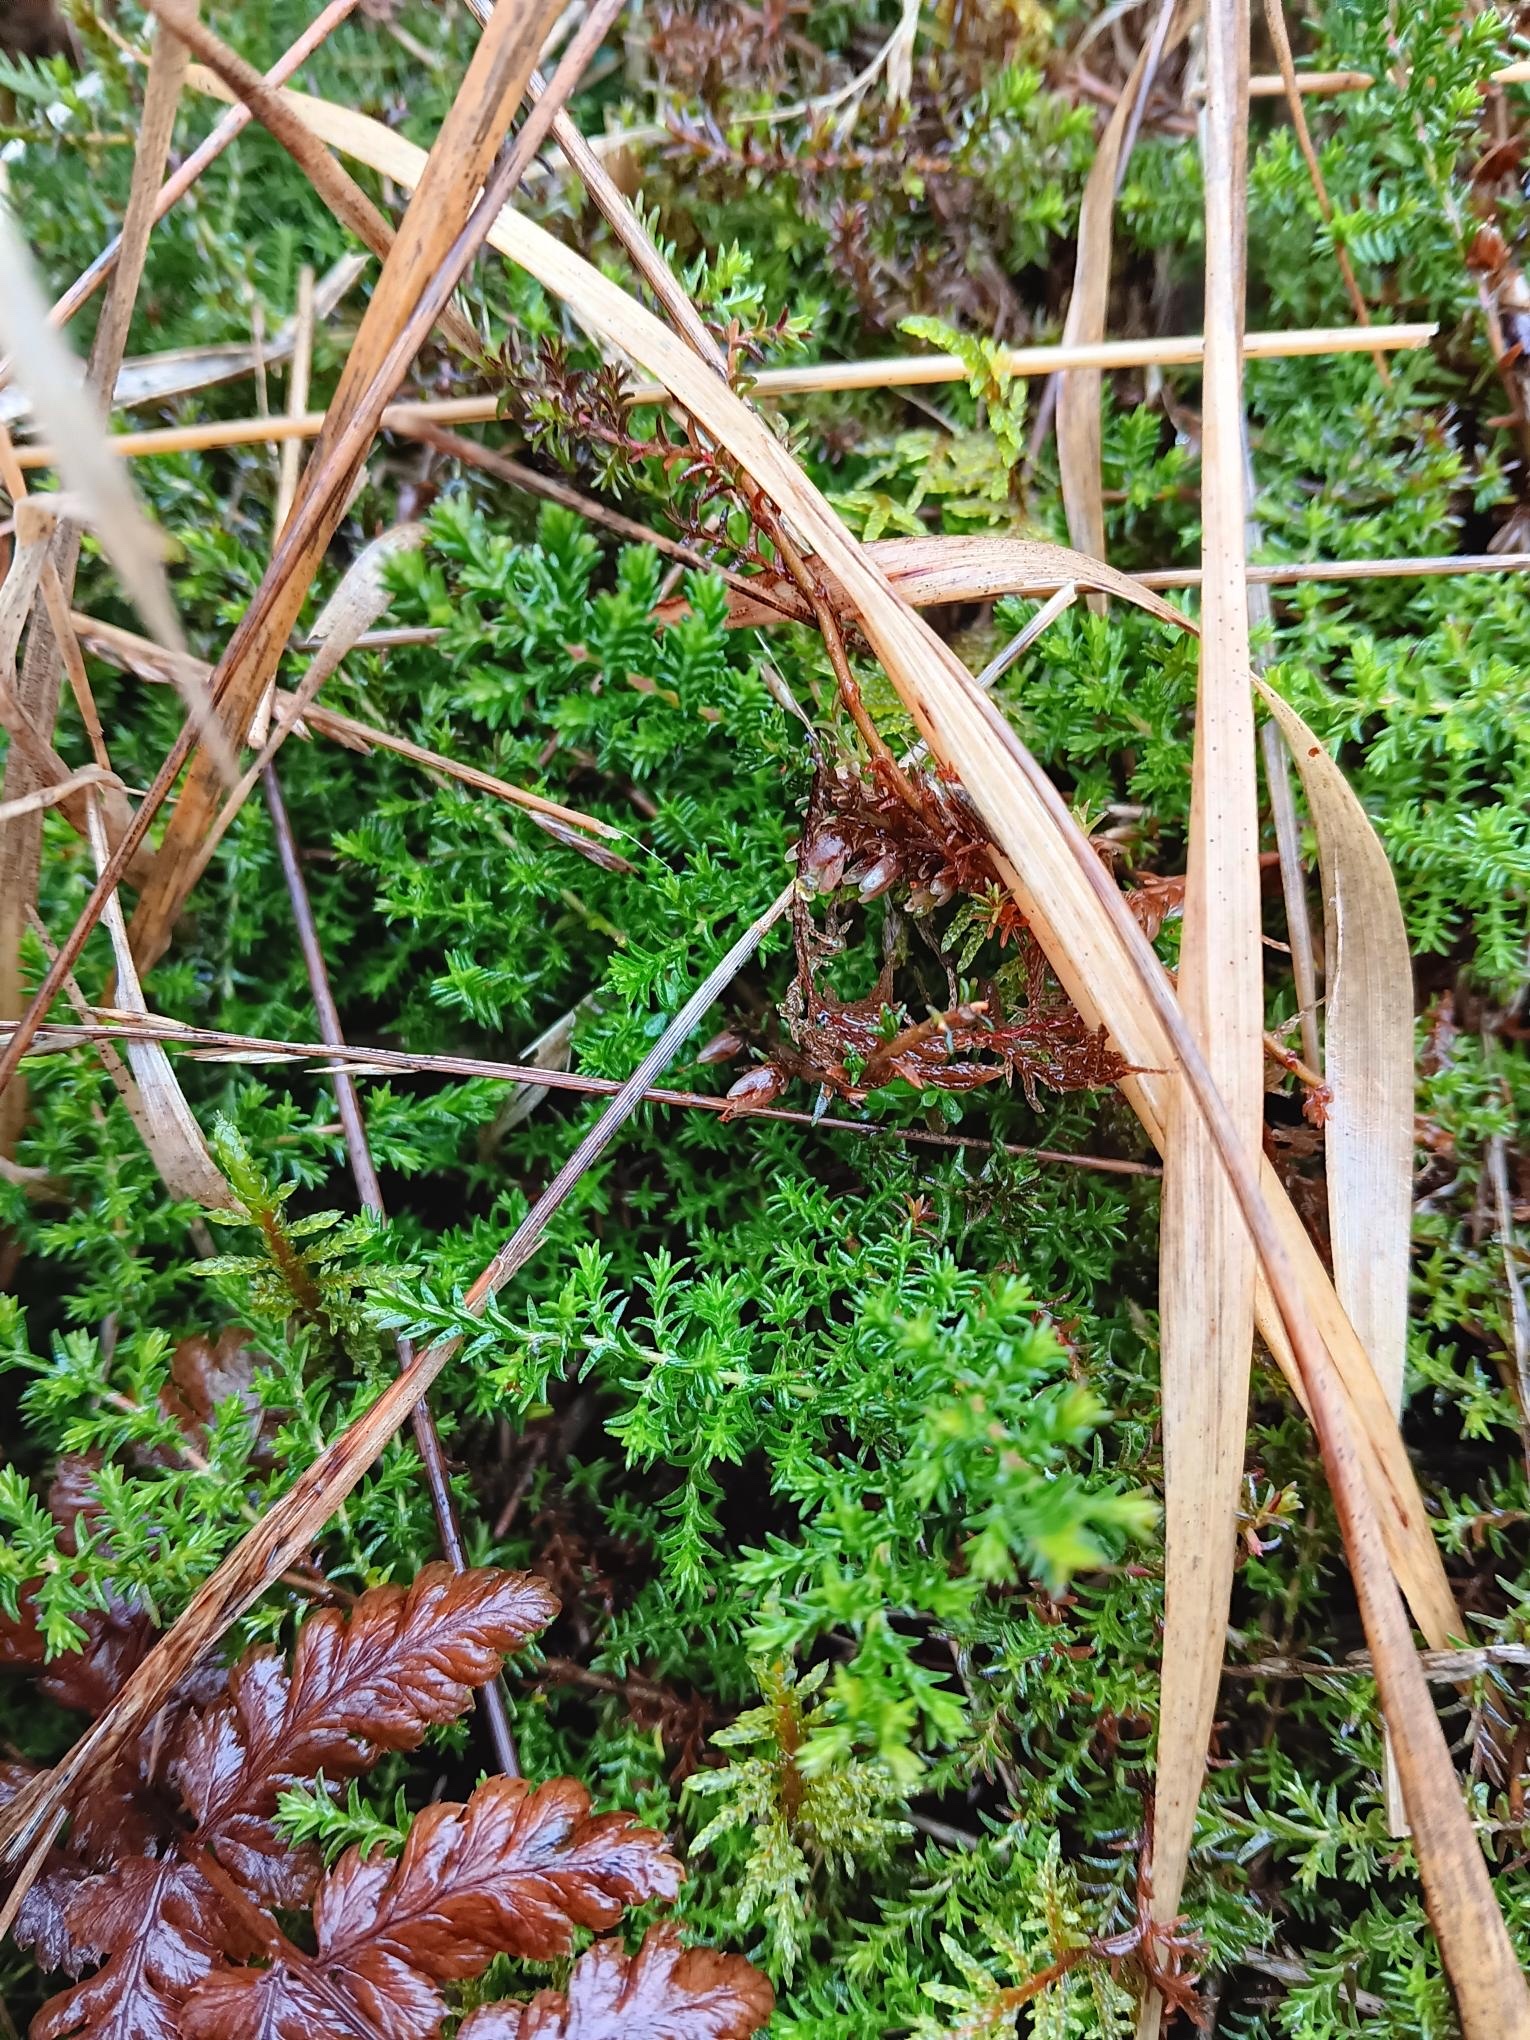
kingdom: Plantae
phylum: Tracheophyta
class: Magnoliopsida
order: Ericales
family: Ericaceae
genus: Calluna
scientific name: Calluna vulgaris
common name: Heather
